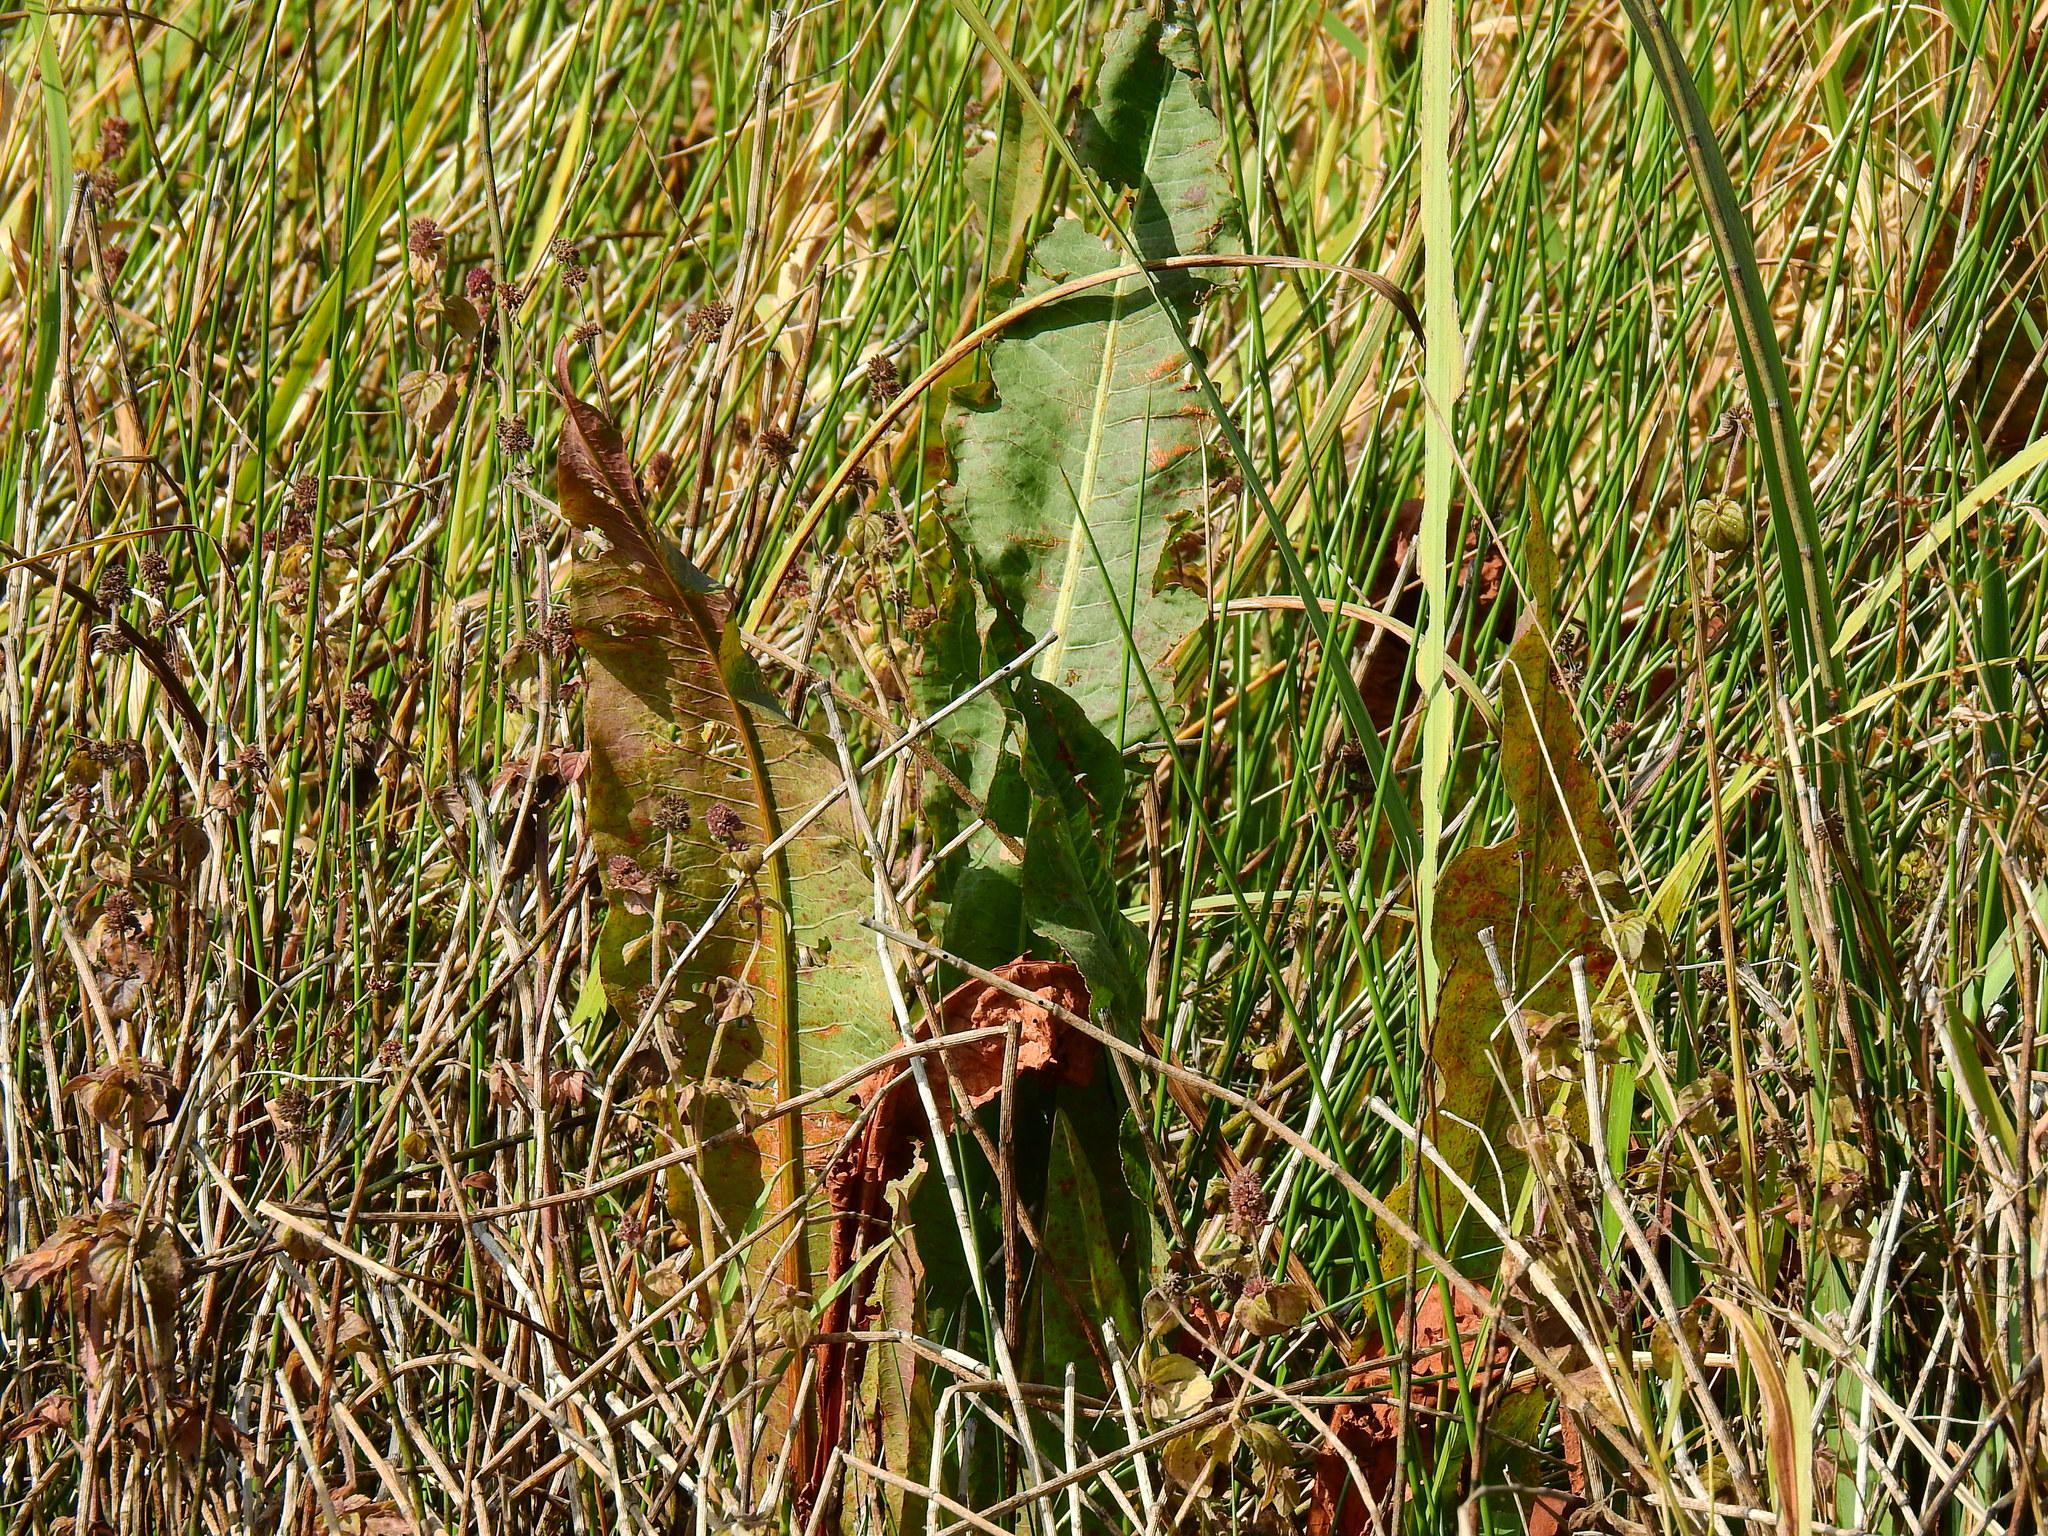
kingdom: Plantae
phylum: Tracheophyta
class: Magnoliopsida
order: Caryophyllales
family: Polygonaceae
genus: Rumex
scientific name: Rumex hydrolapathum
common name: Water dock
